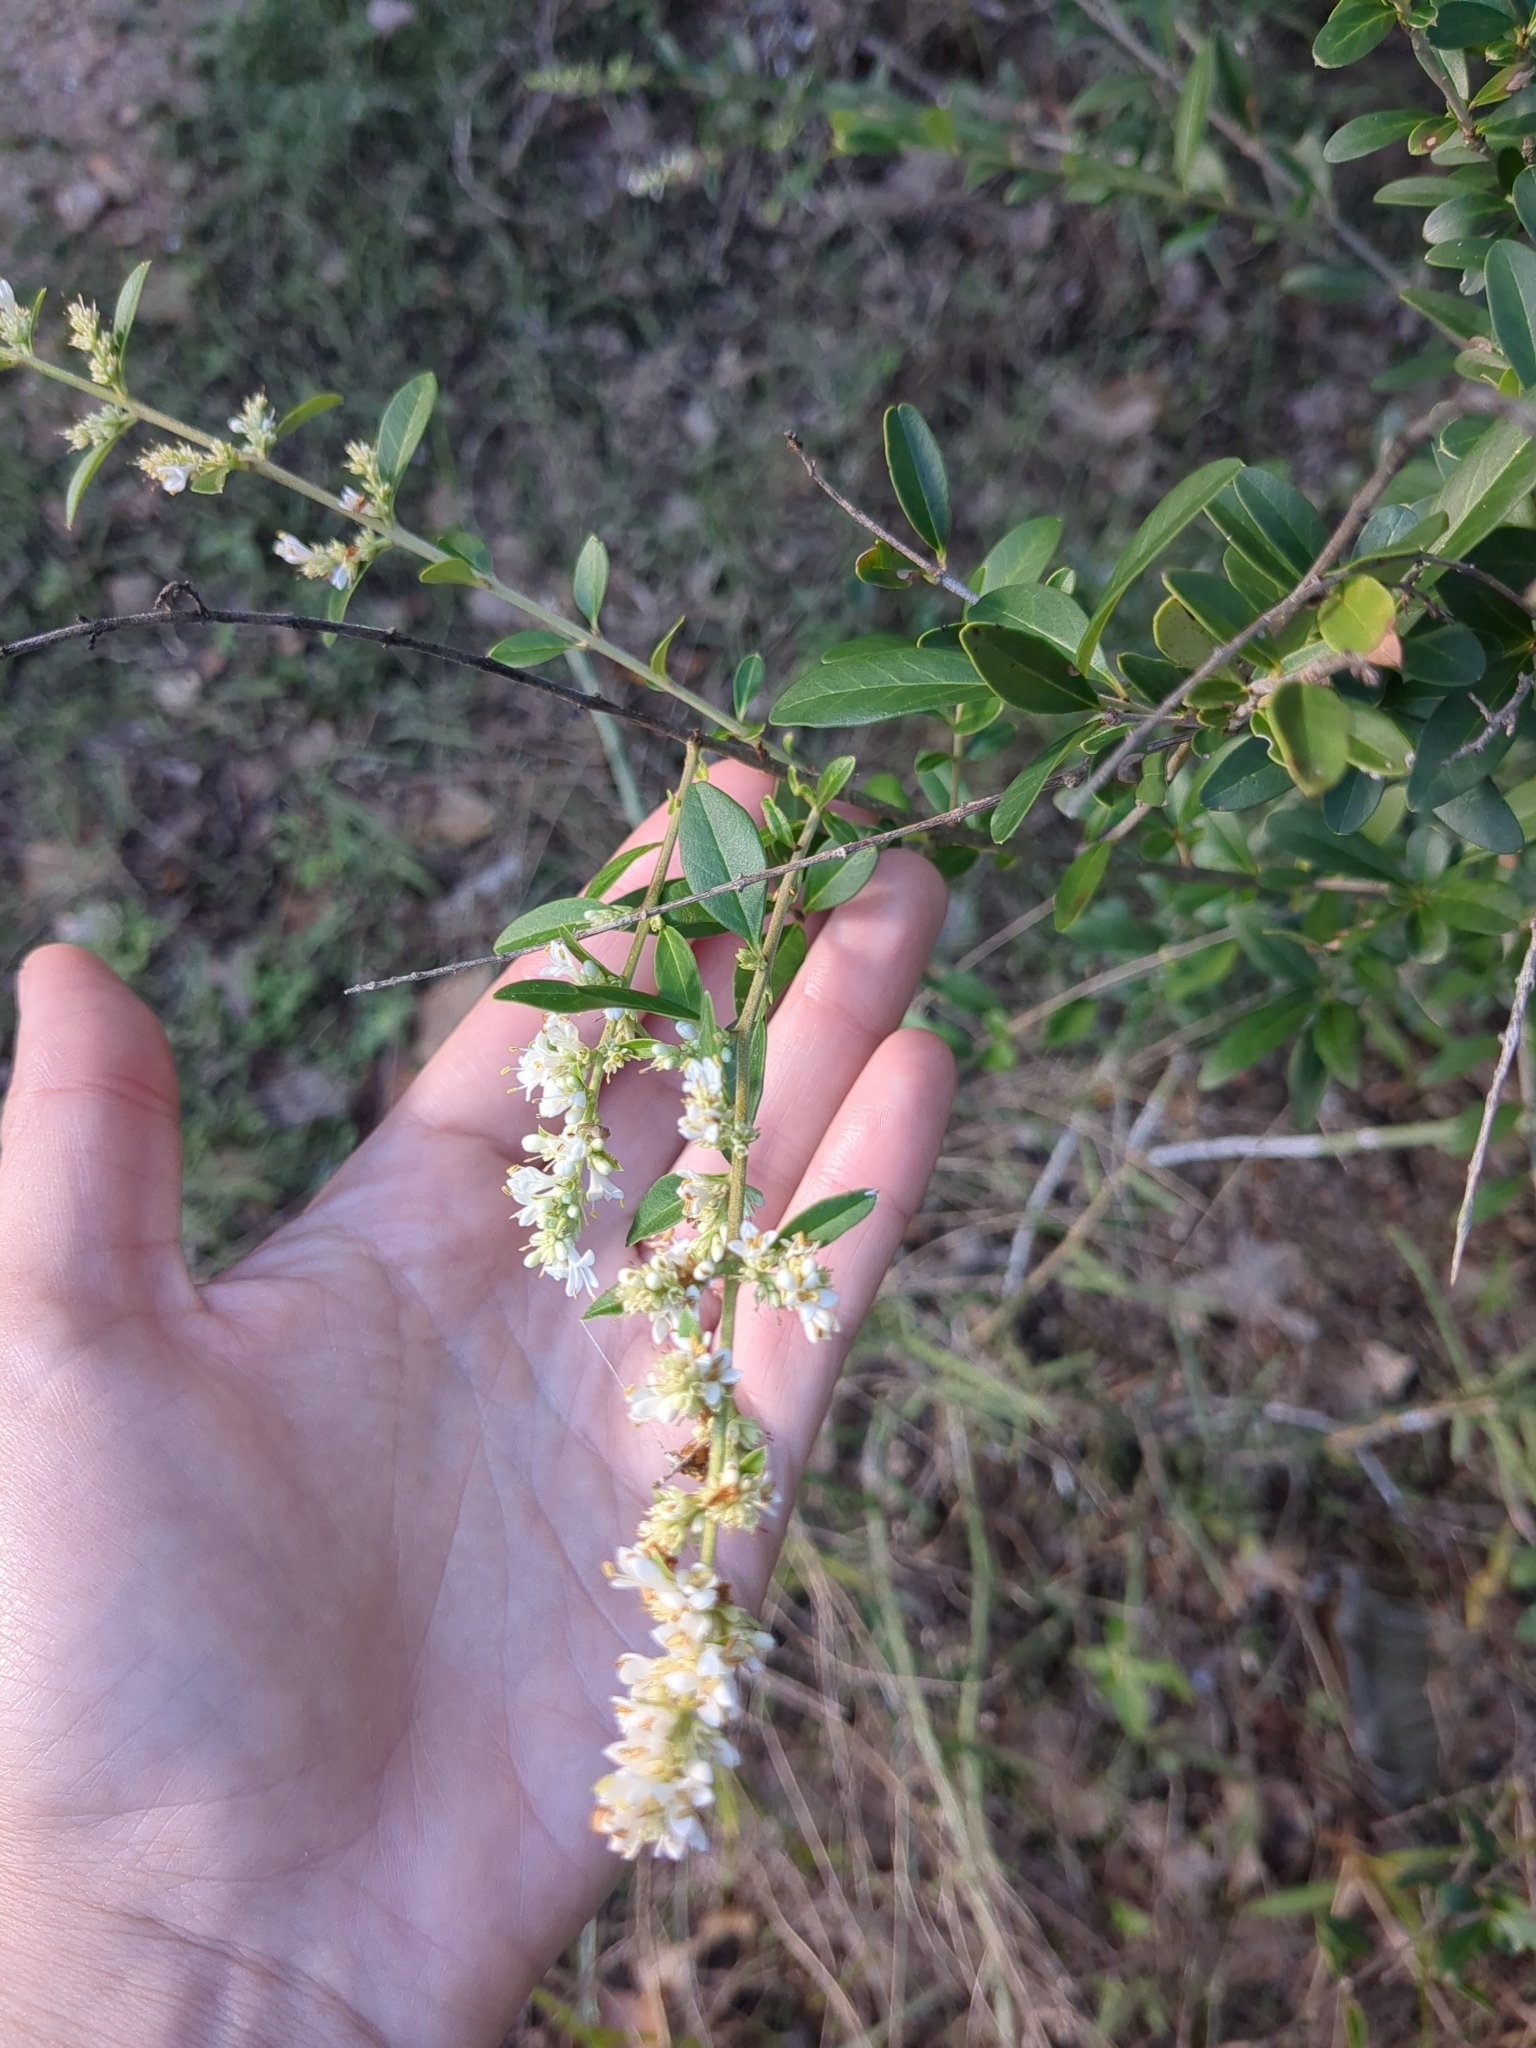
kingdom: Plantae
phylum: Tracheophyta
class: Magnoliopsida
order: Lamiales
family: Oleaceae
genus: Ligustrum
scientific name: Ligustrum quihoui
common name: Waxyleaf privet
